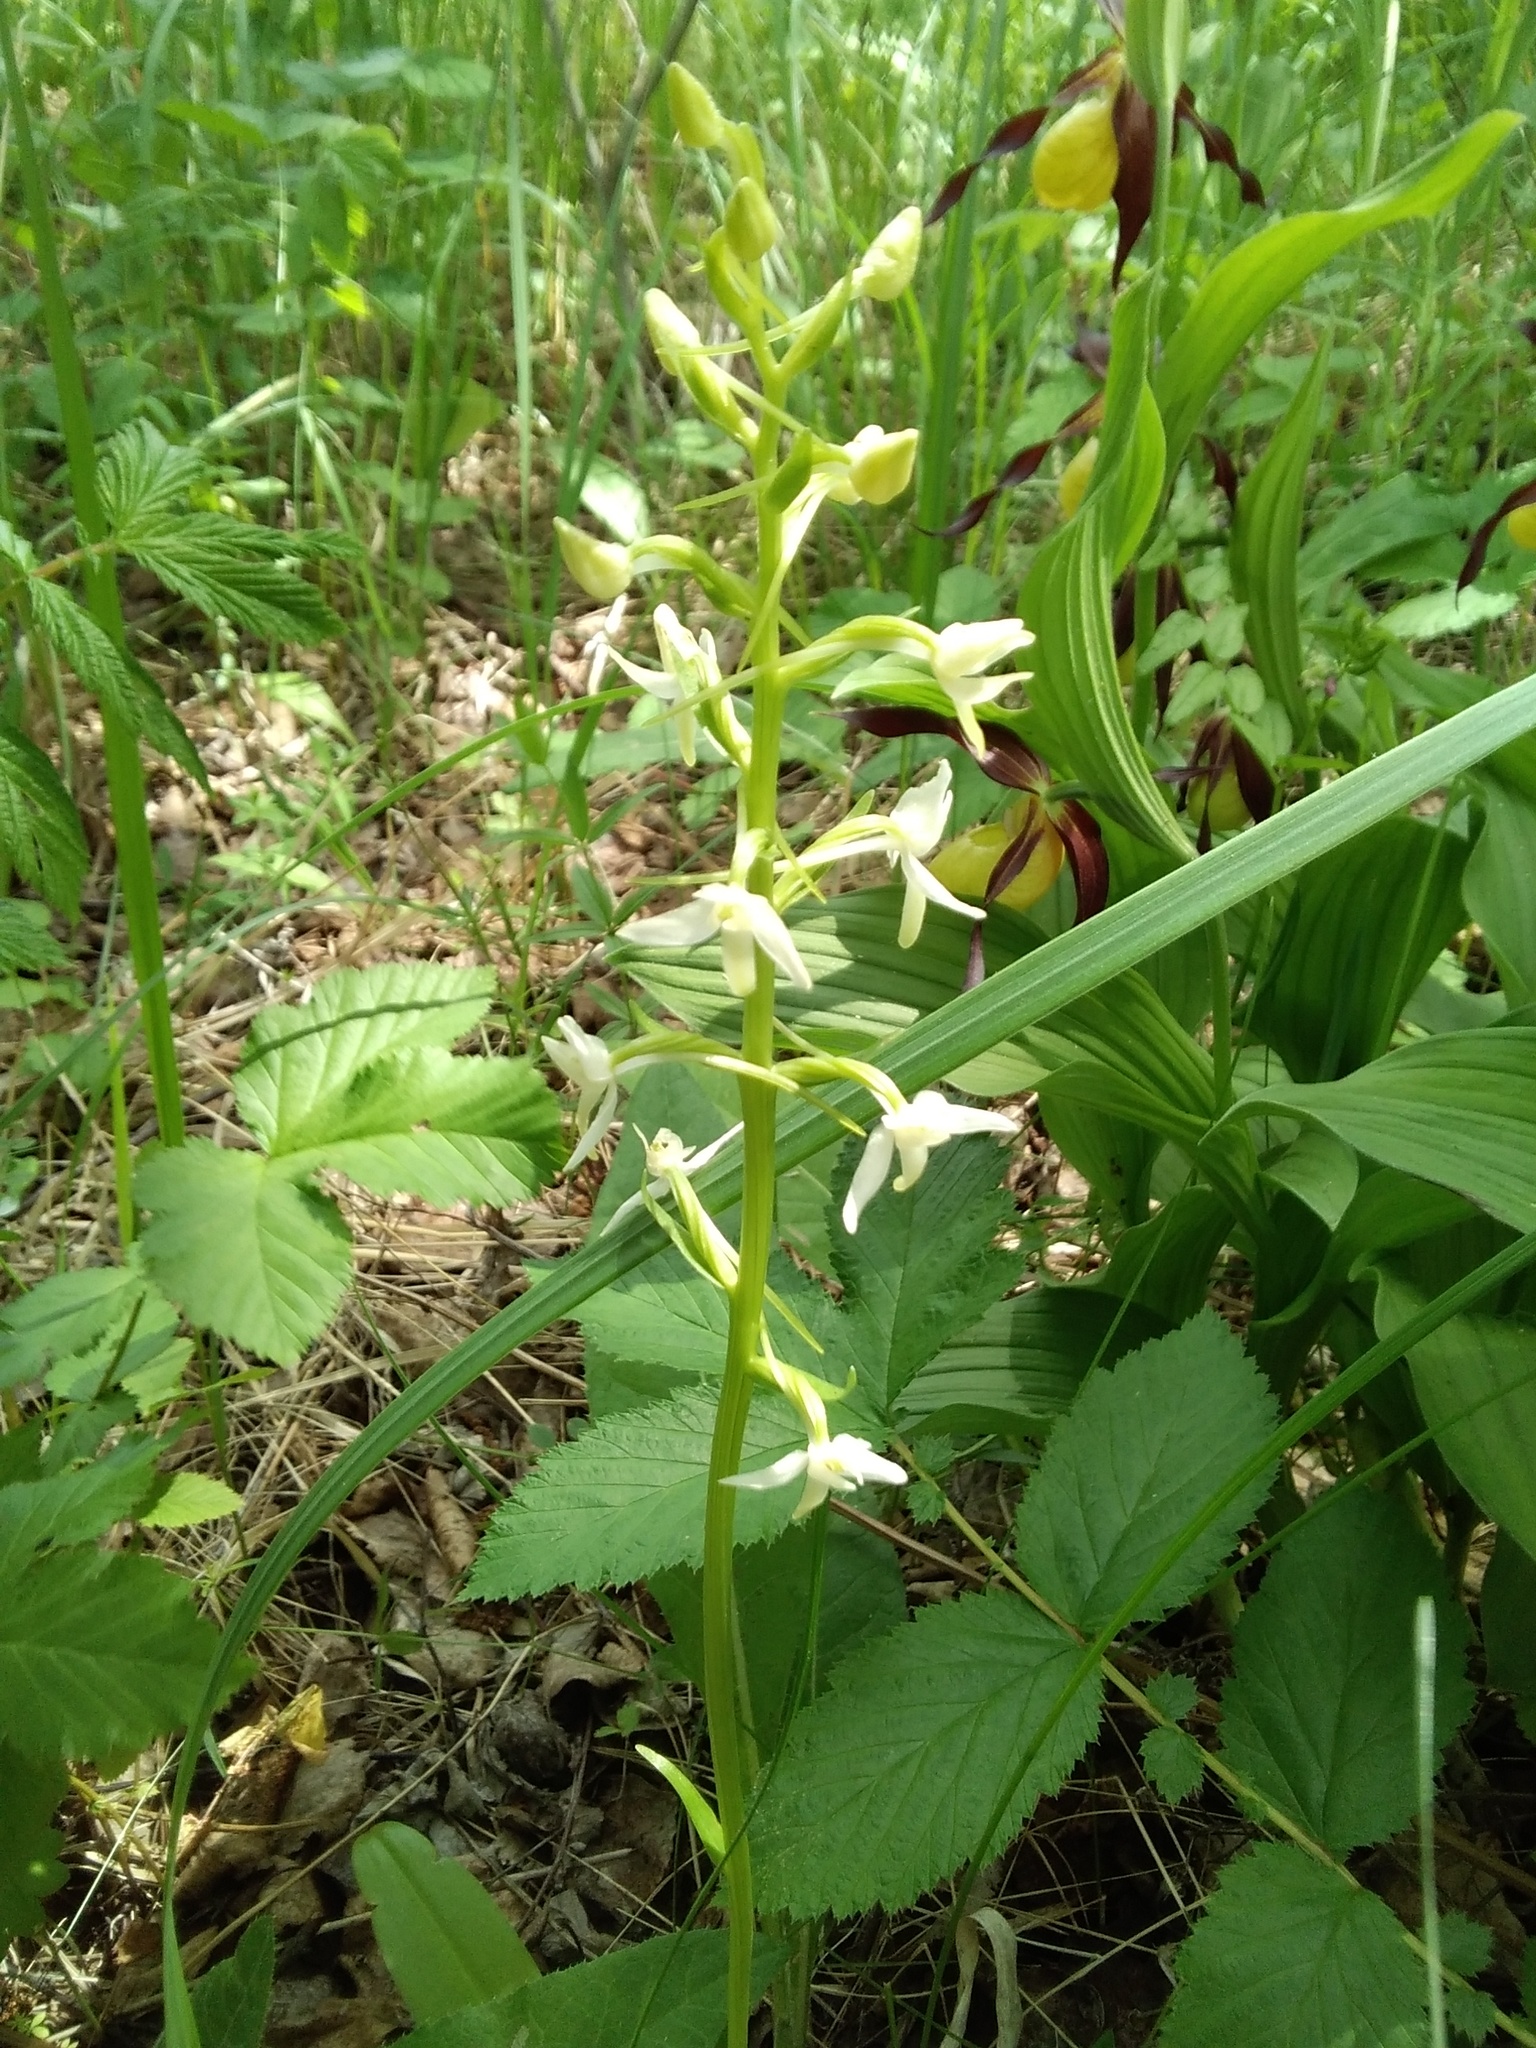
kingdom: Plantae
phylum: Tracheophyta
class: Liliopsida
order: Asparagales
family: Orchidaceae
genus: Platanthera
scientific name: Platanthera bifolia
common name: Lesser butterfly-orchid
